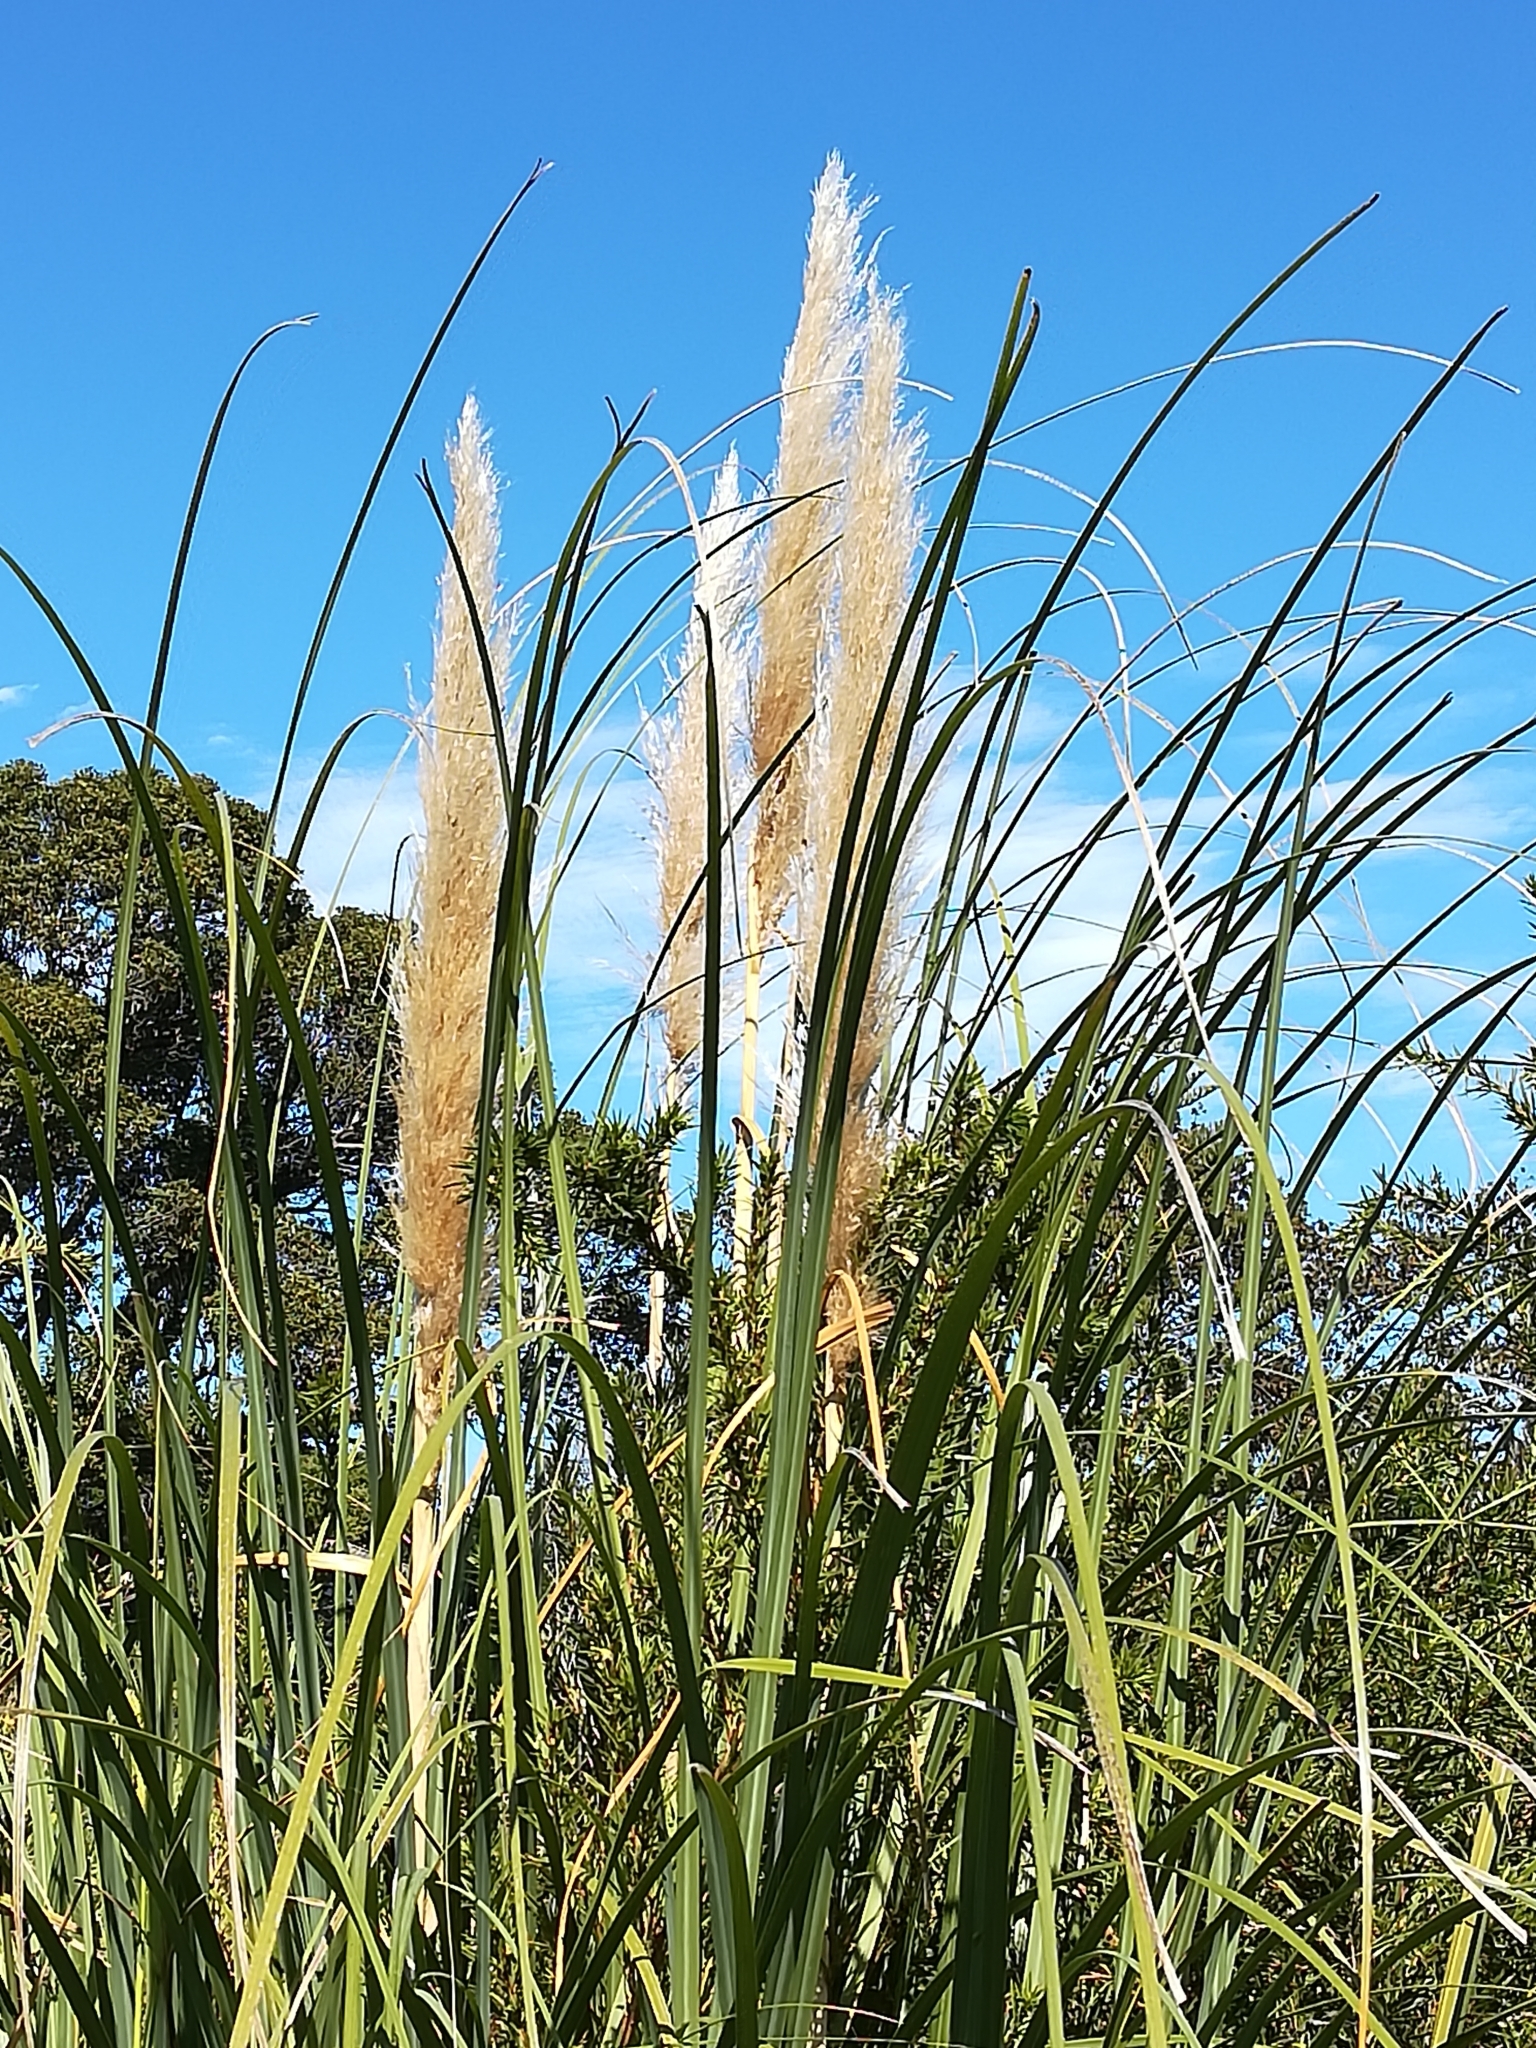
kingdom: Plantae
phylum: Tracheophyta
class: Liliopsida
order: Poales
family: Poaceae
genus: Cortaderia
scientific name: Cortaderia selloana
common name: Uruguayan pampas grass
